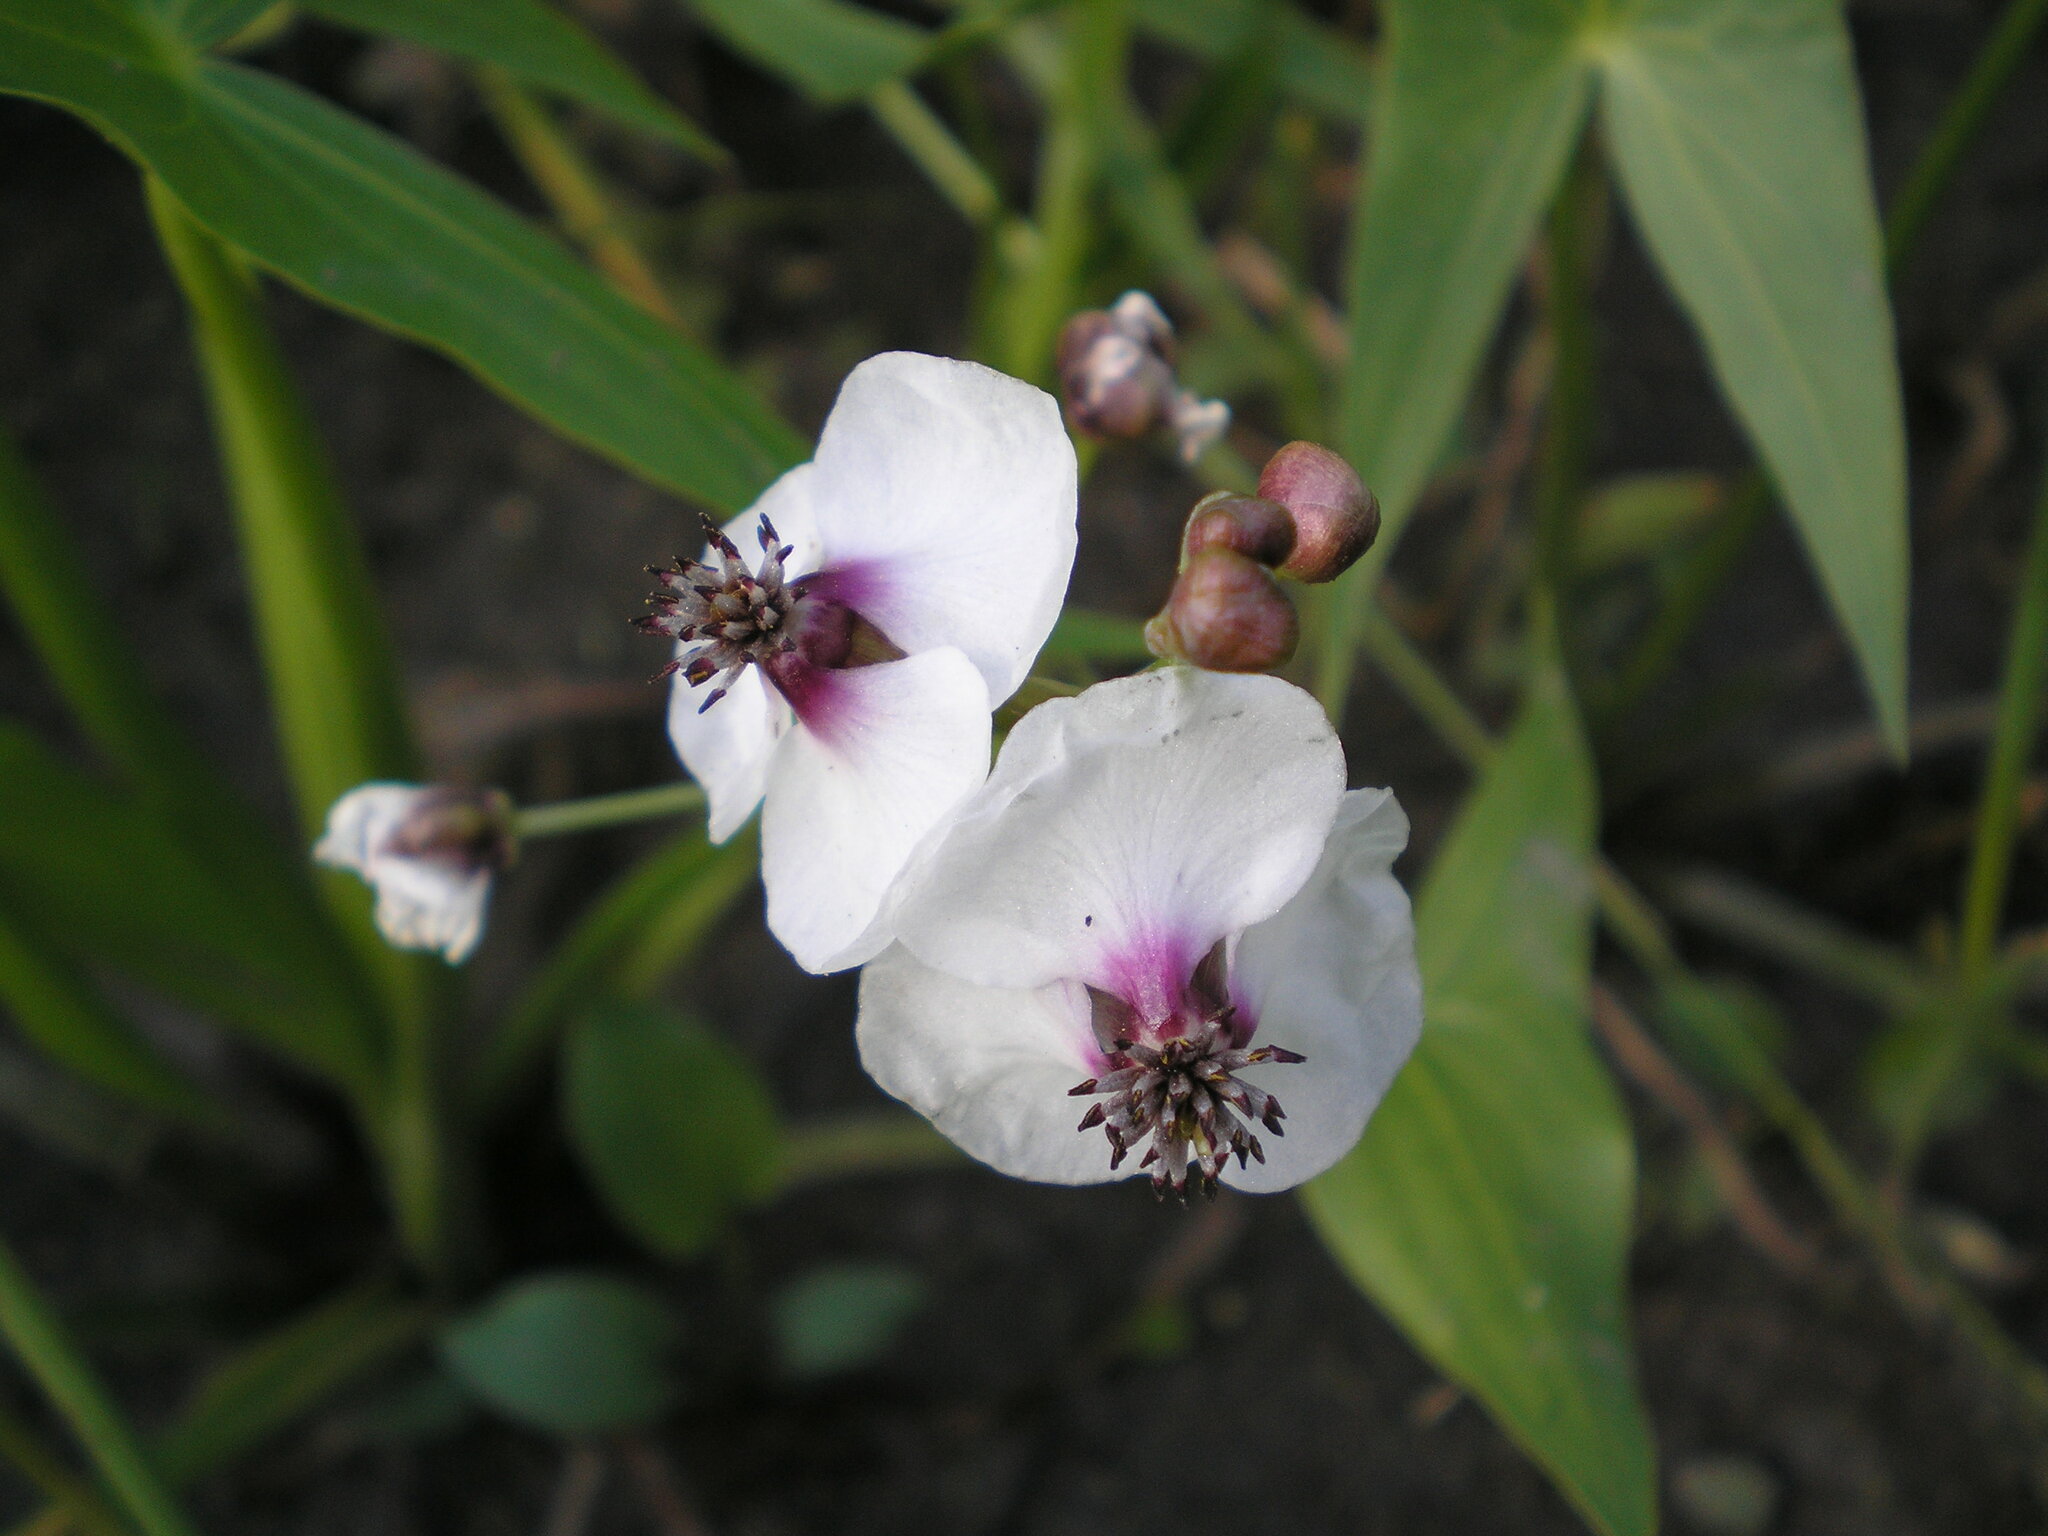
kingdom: Plantae
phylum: Tracheophyta
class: Liliopsida
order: Alismatales
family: Alismataceae
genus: Sagittaria
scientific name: Sagittaria sagittifolia
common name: Arrowhead
